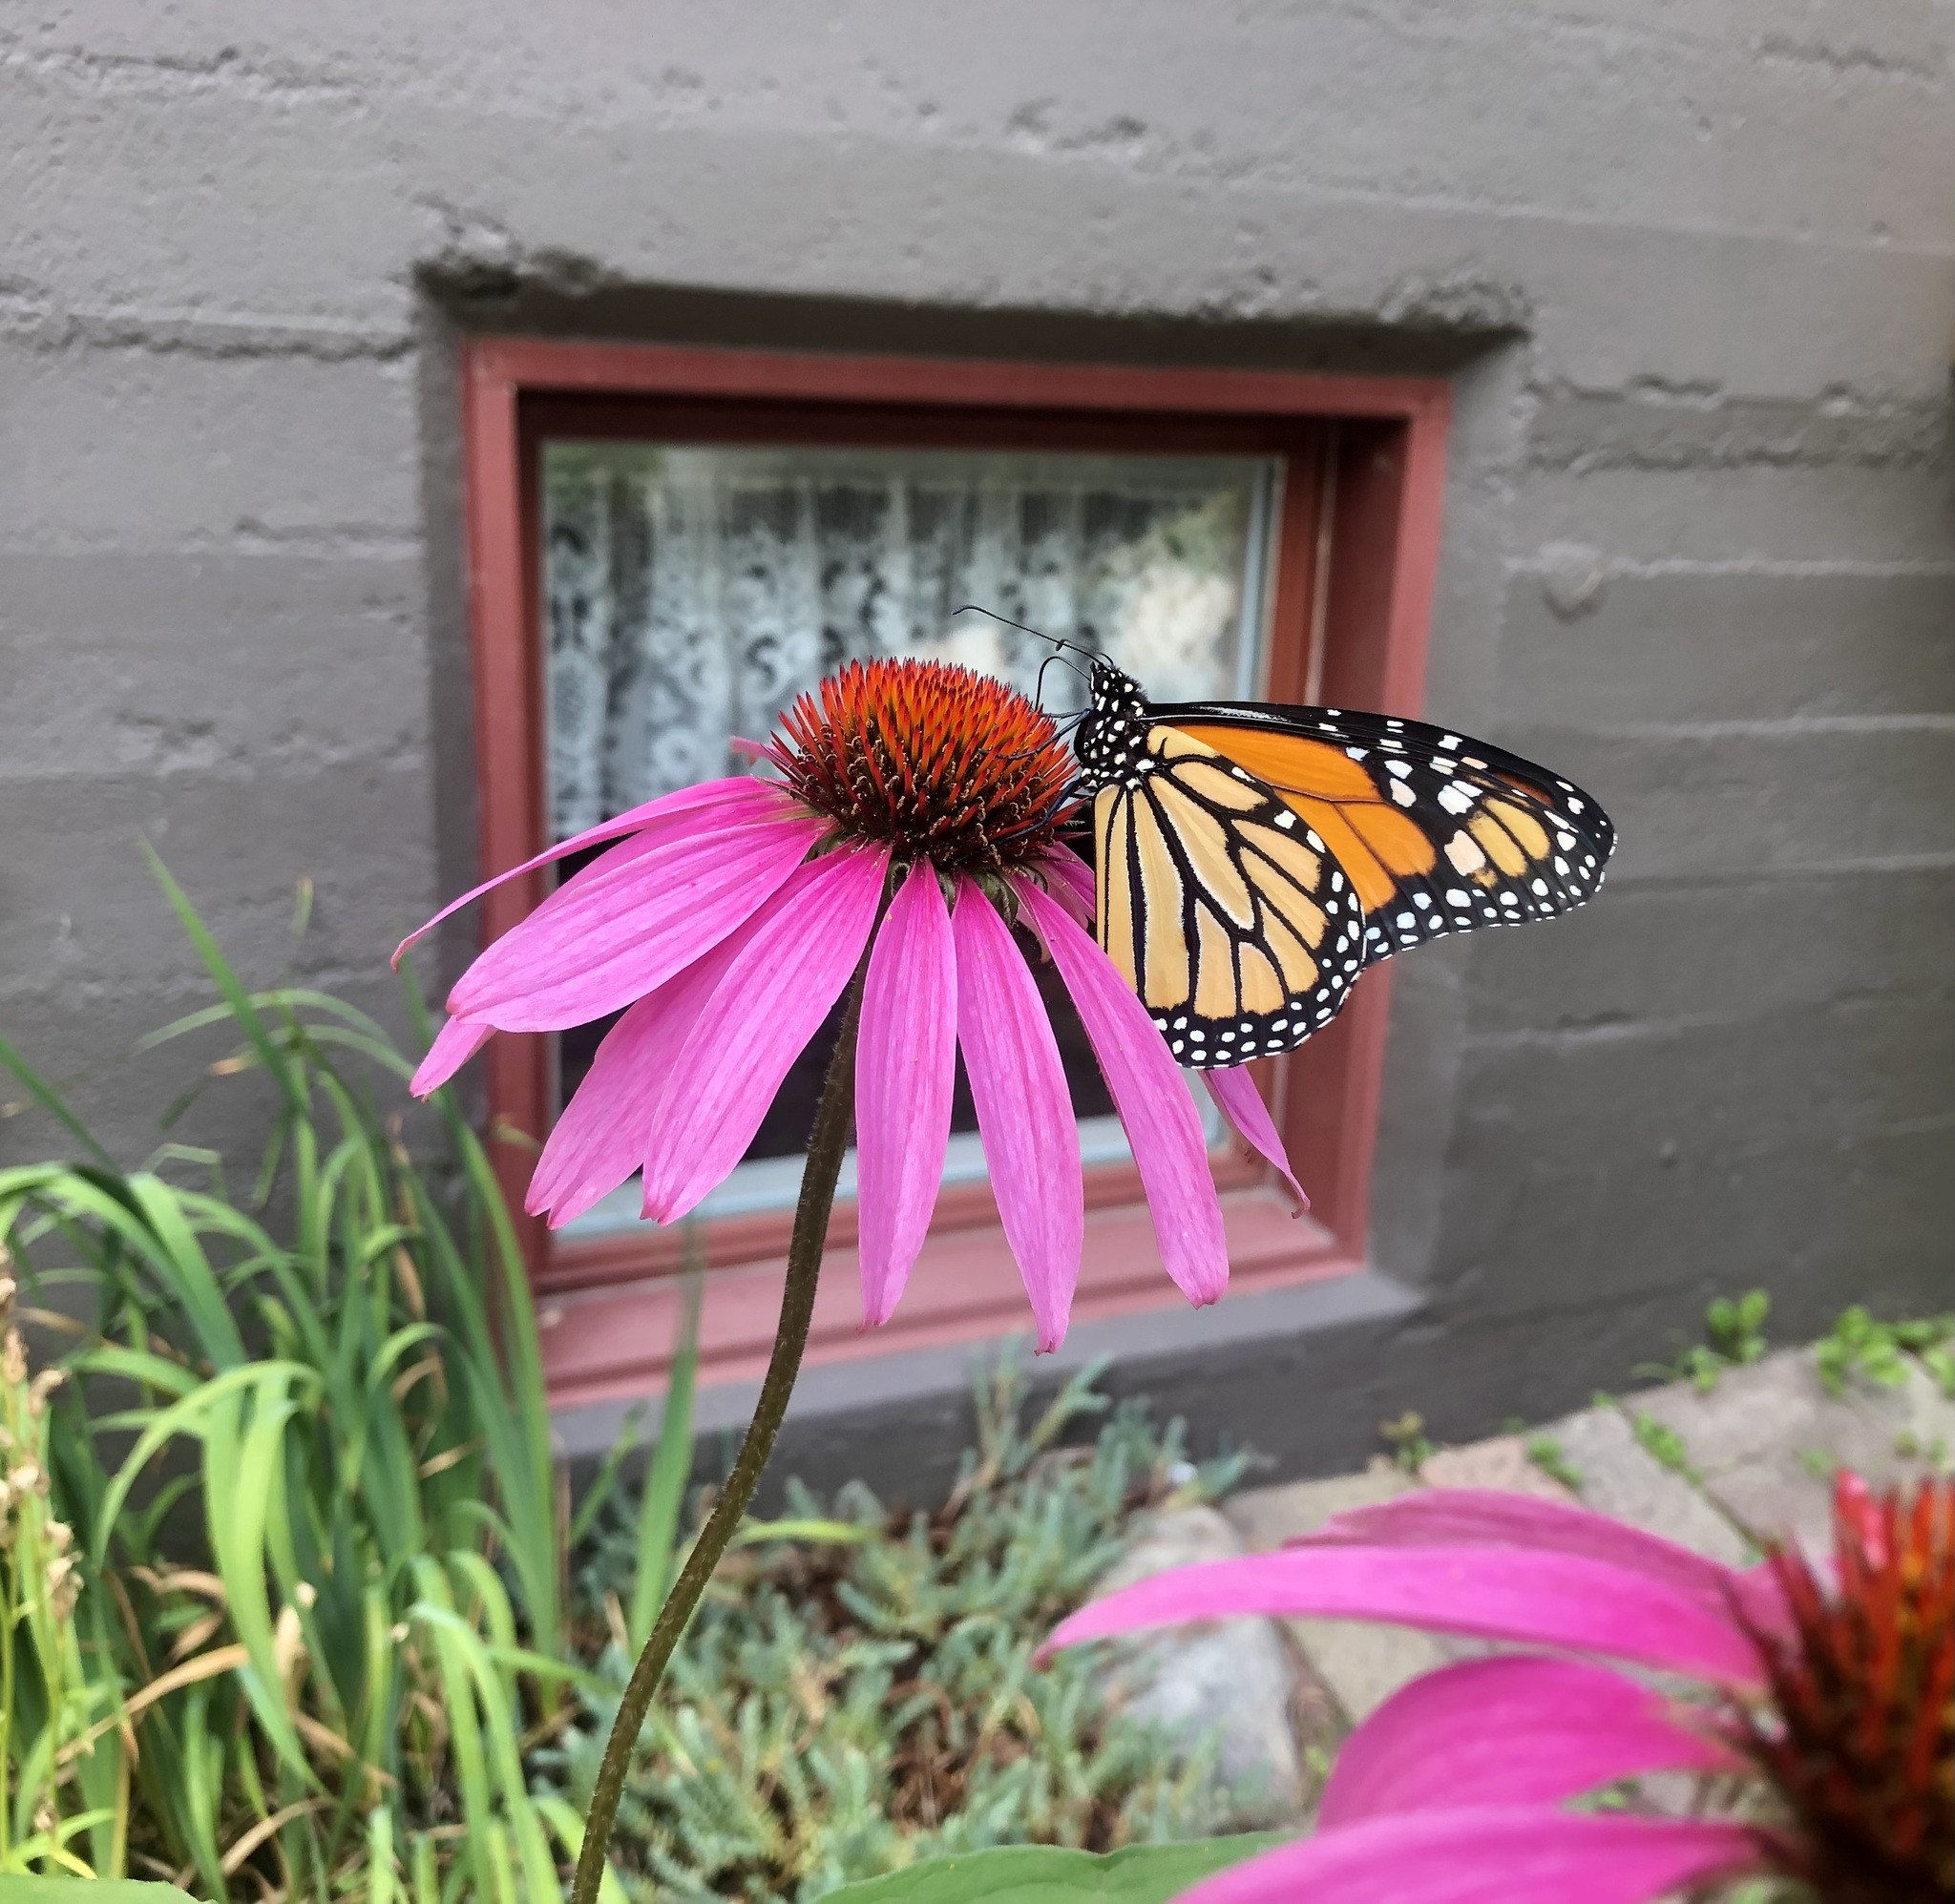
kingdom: Animalia
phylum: Arthropoda
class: Insecta
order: Lepidoptera
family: Nymphalidae
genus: Danaus
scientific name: Danaus plexippus
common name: Monarch
